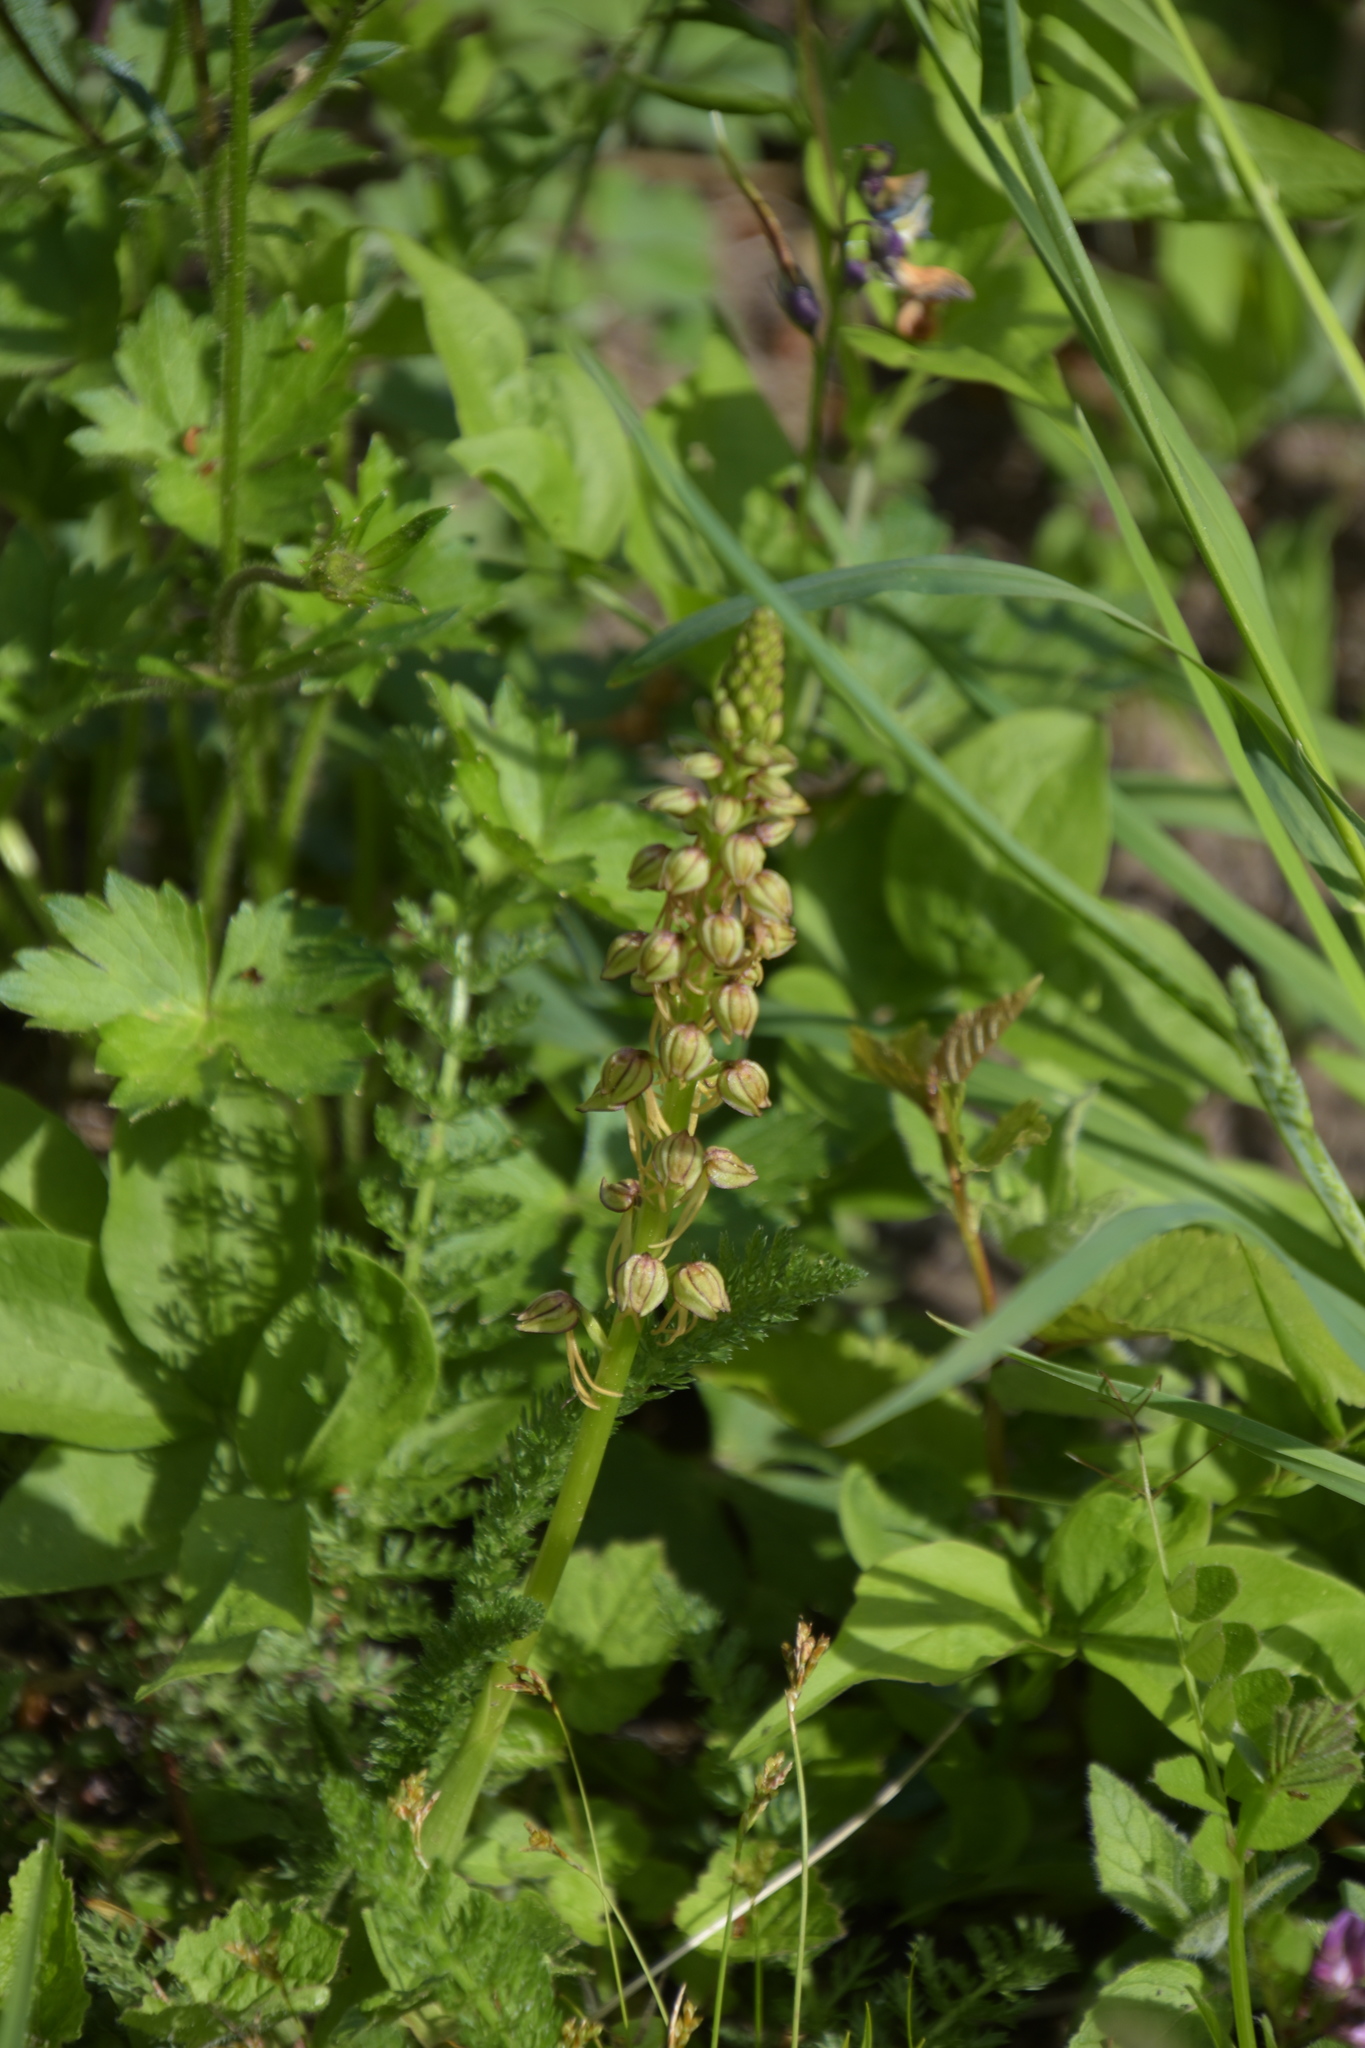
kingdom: Plantae
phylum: Tracheophyta
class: Liliopsida
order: Asparagales
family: Orchidaceae
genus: Orchis
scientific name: Orchis anthropophora
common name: Man orchid
